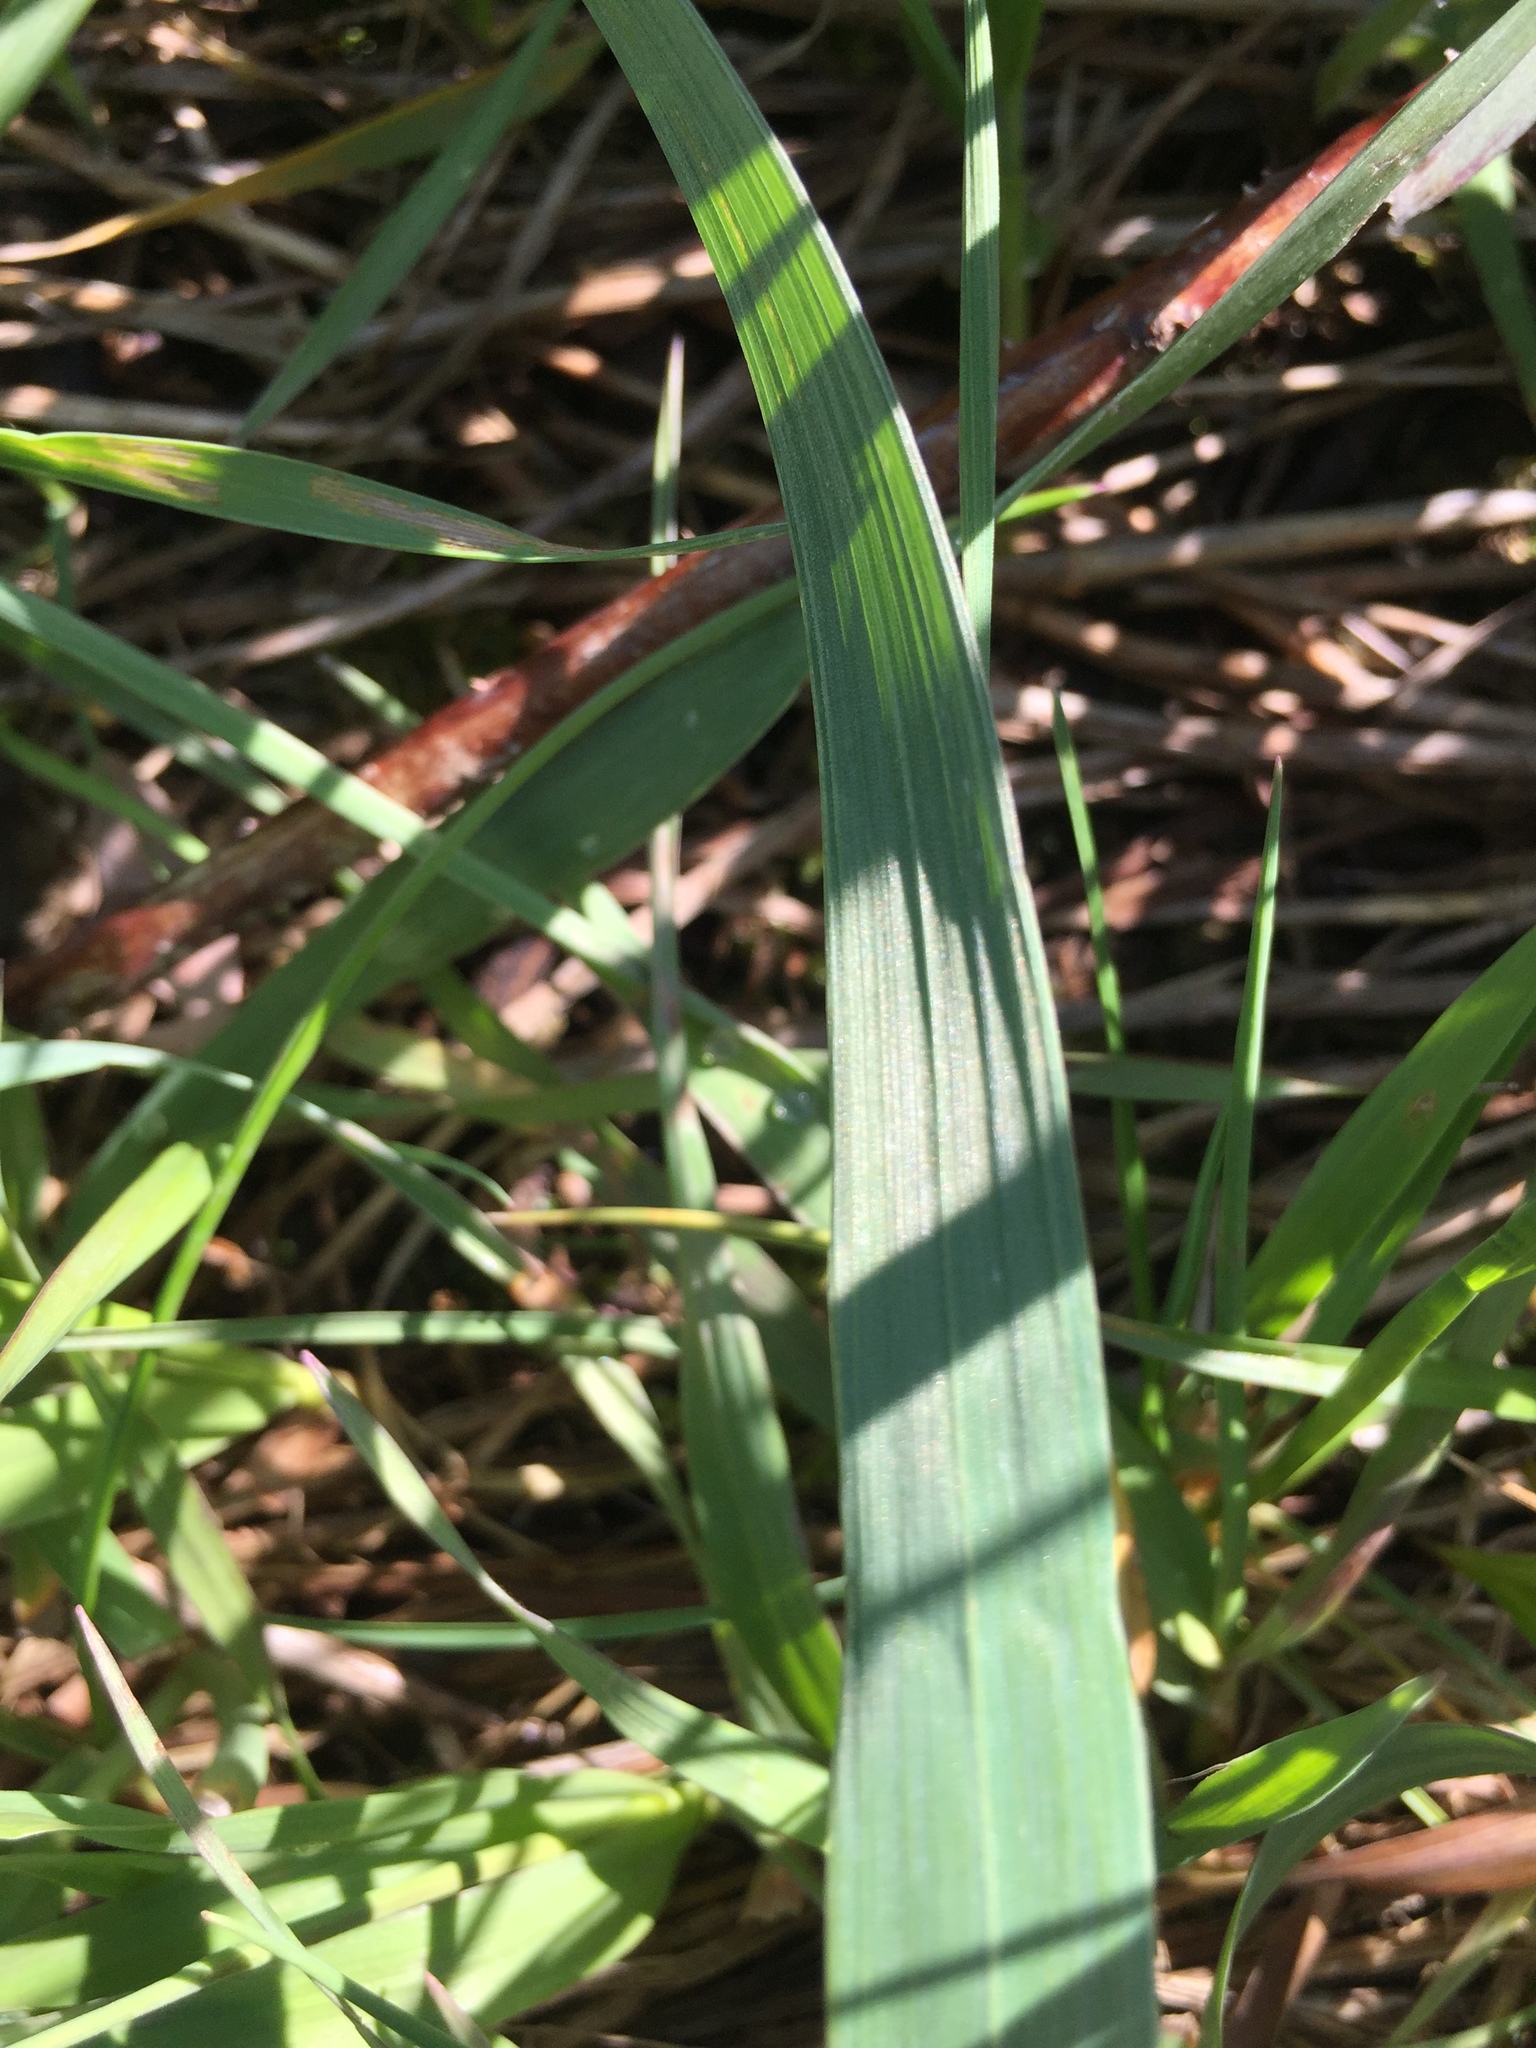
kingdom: Plantae
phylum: Tracheophyta
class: Liliopsida
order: Poales
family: Poaceae
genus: Bromus
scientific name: Bromus inermis
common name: Smooth brome
